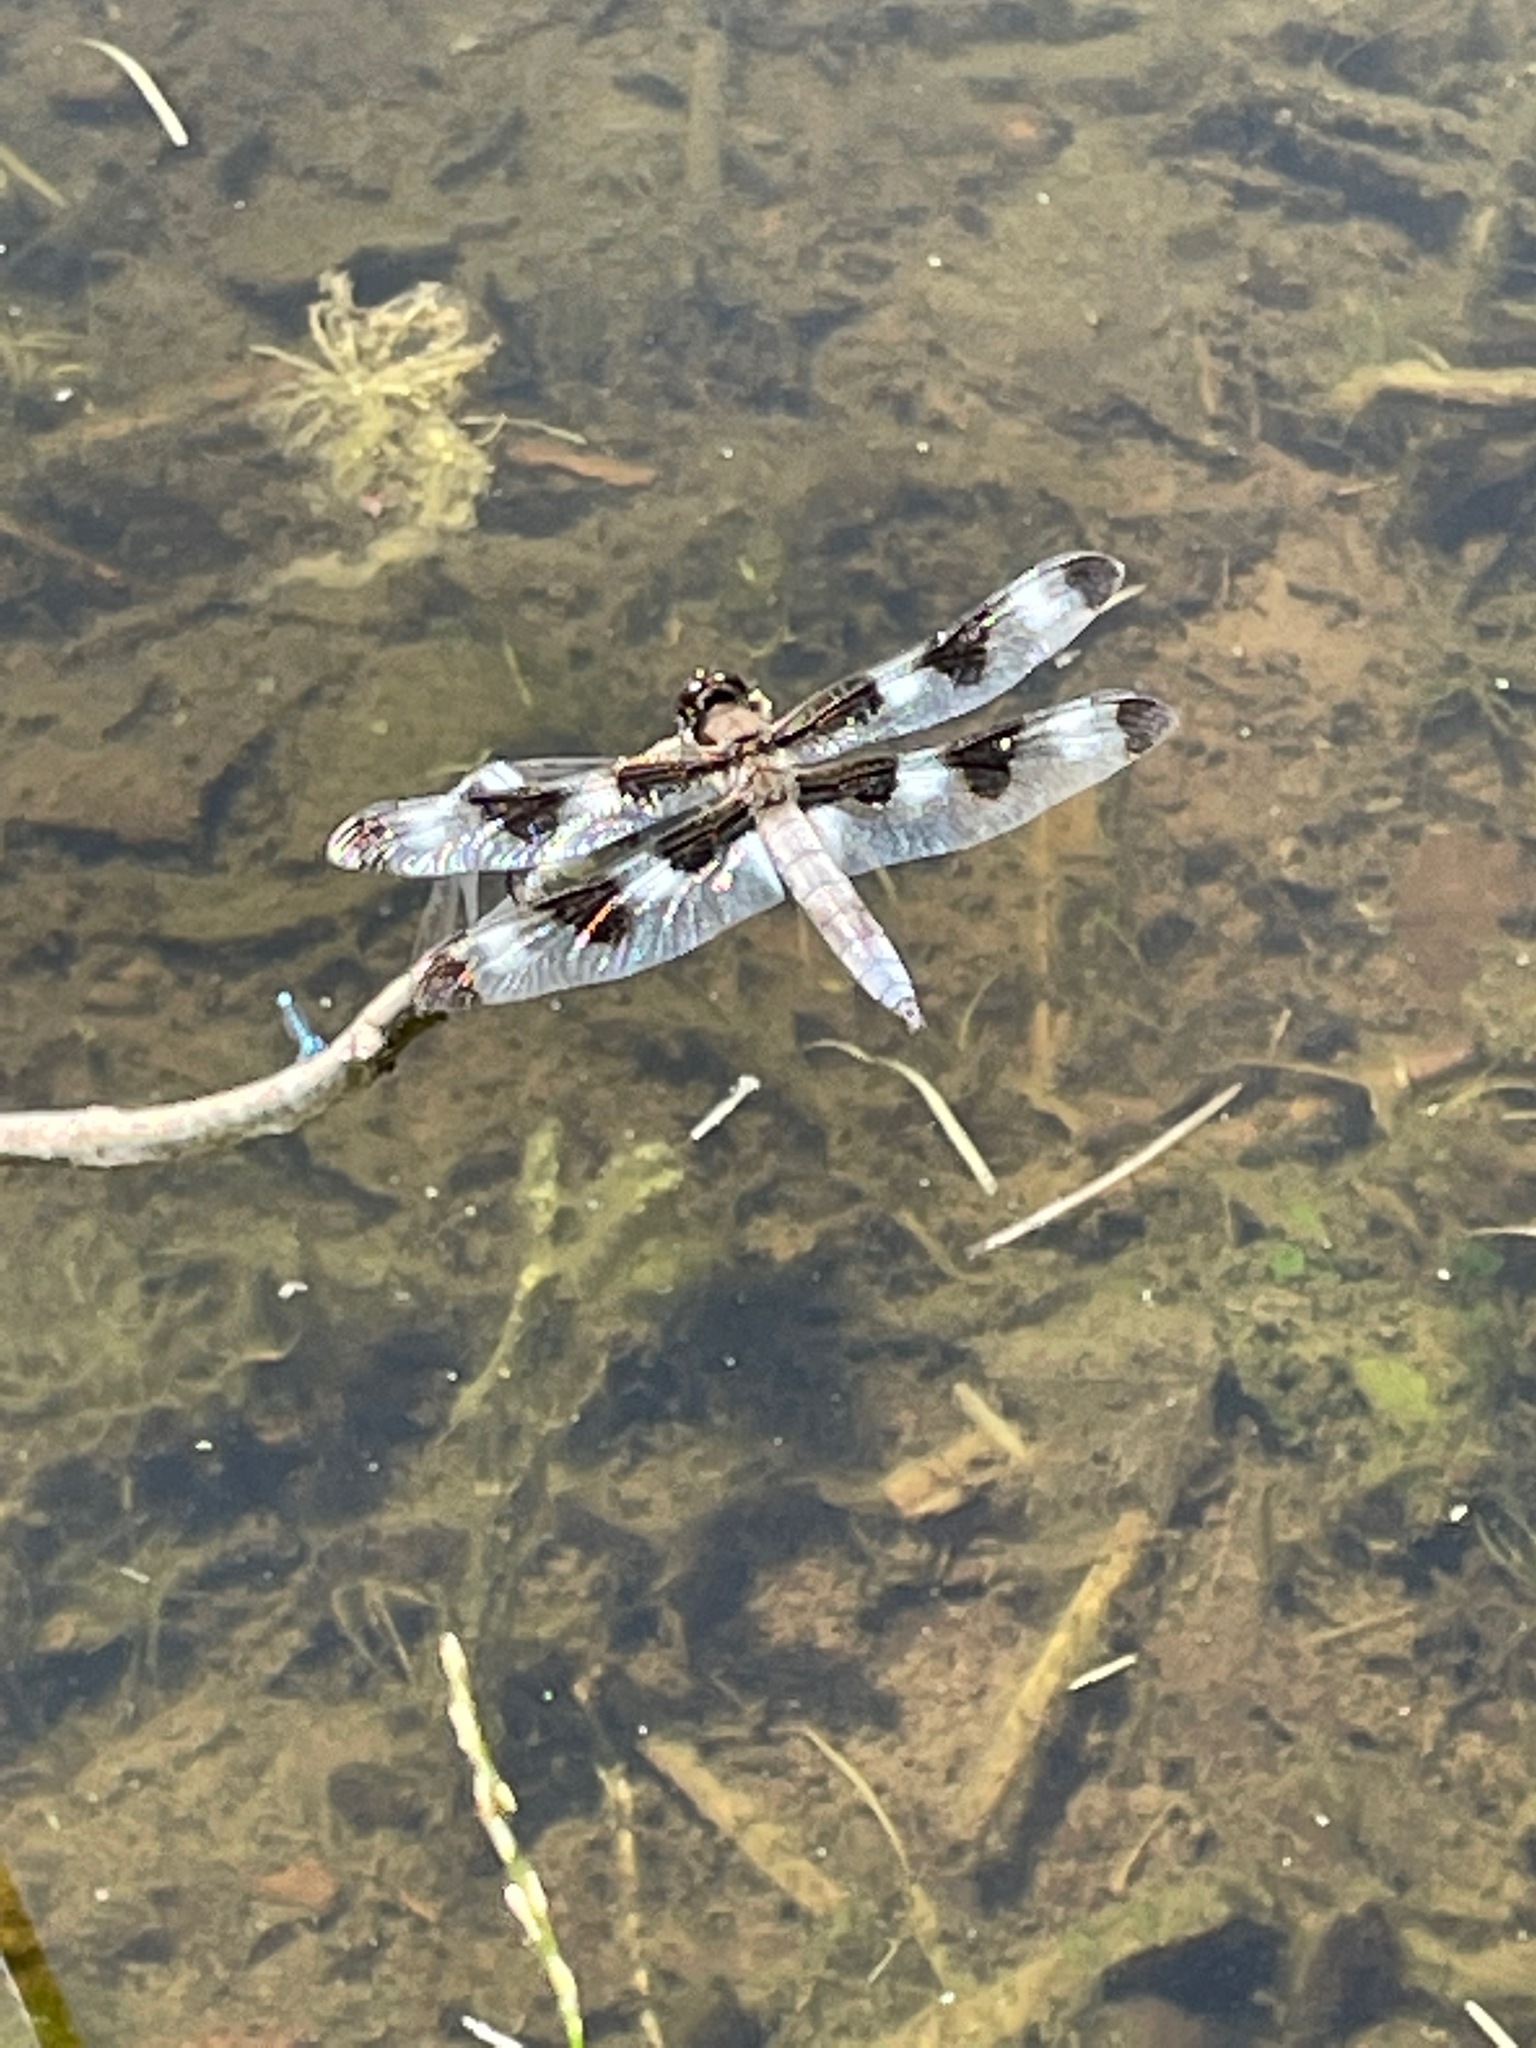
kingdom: Animalia
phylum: Arthropoda
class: Insecta
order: Odonata
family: Libellulidae
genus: Libellula
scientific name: Libellula pulchella
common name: Twelve-spotted skimmer
